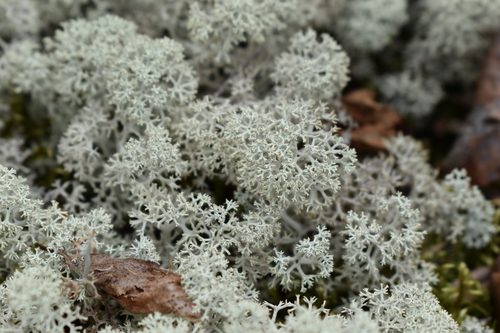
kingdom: Fungi
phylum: Ascomycota
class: Lecanoromycetes
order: Lecanorales
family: Cladoniaceae
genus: Cladonia
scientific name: Cladonia stellaris
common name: Star-tipped reindeer lichen
